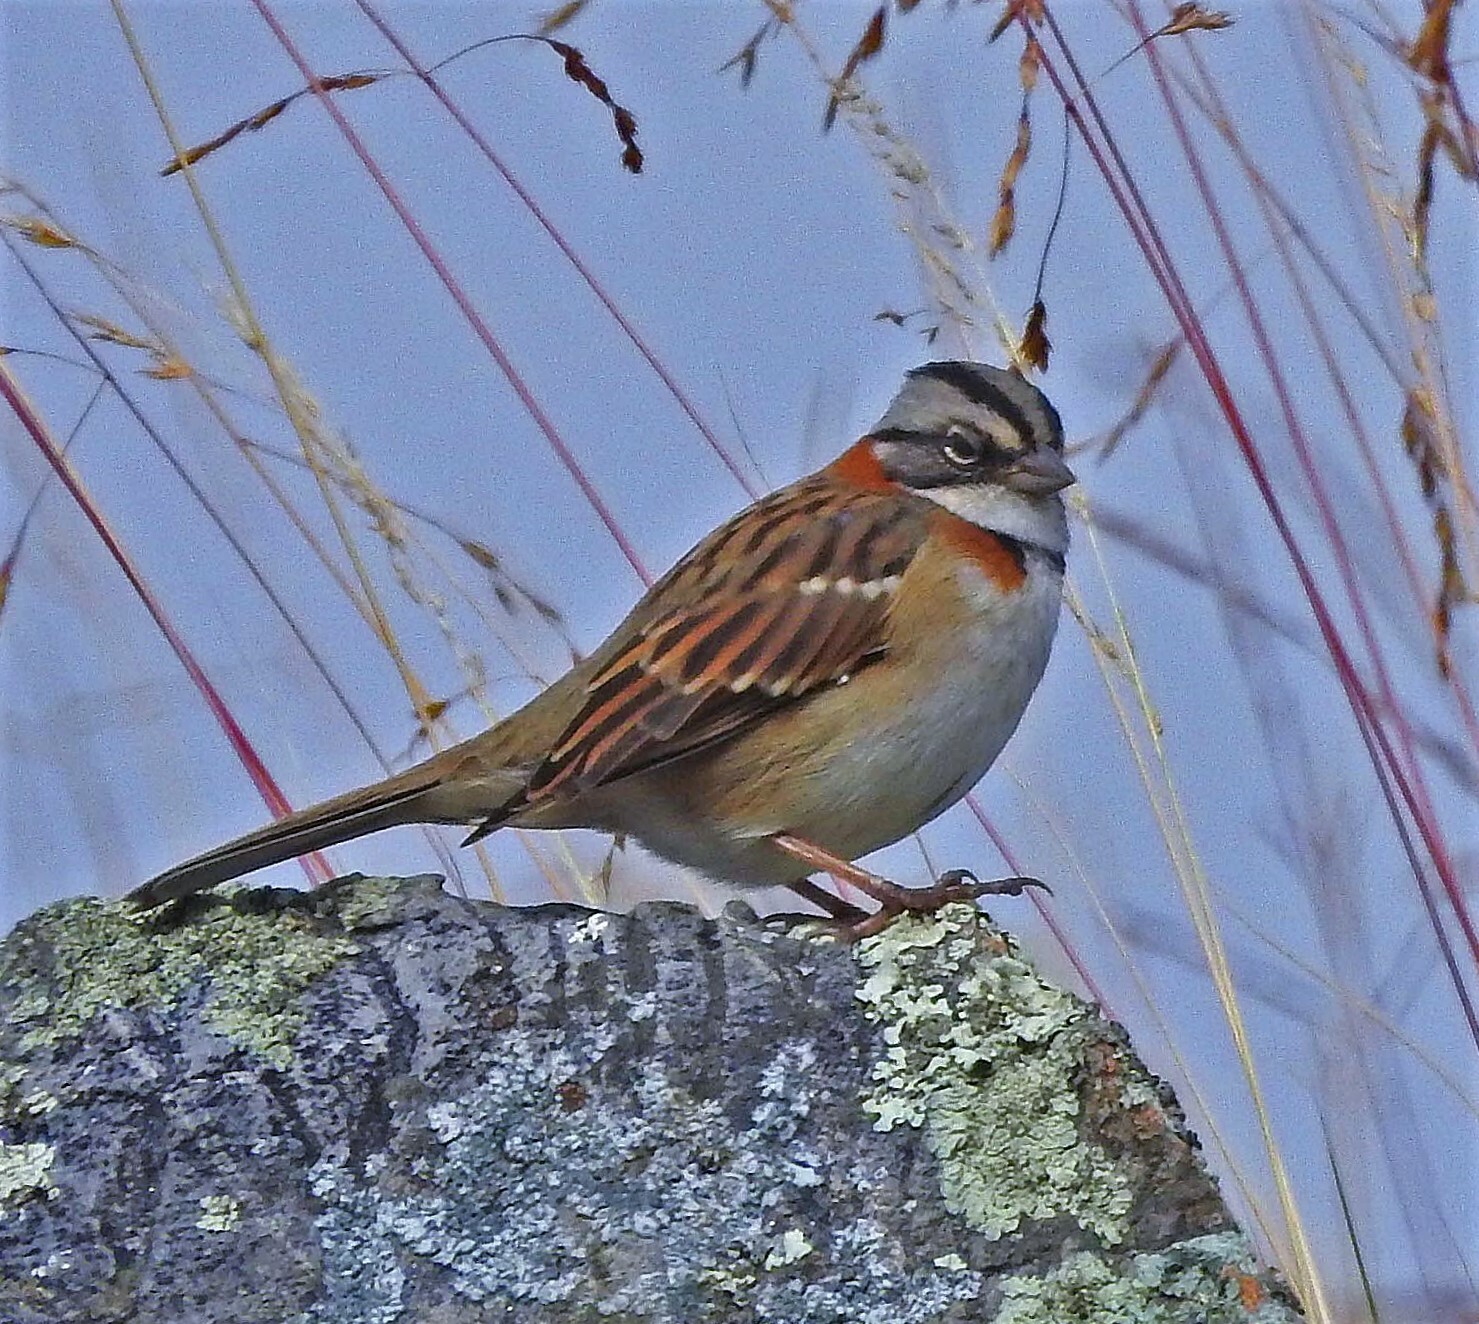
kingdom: Animalia
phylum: Chordata
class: Aves
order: Passeriformes
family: Passerellidae
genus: Zonotrichia
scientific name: Zonotrichia capensis
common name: Rufous-collared sparrow
